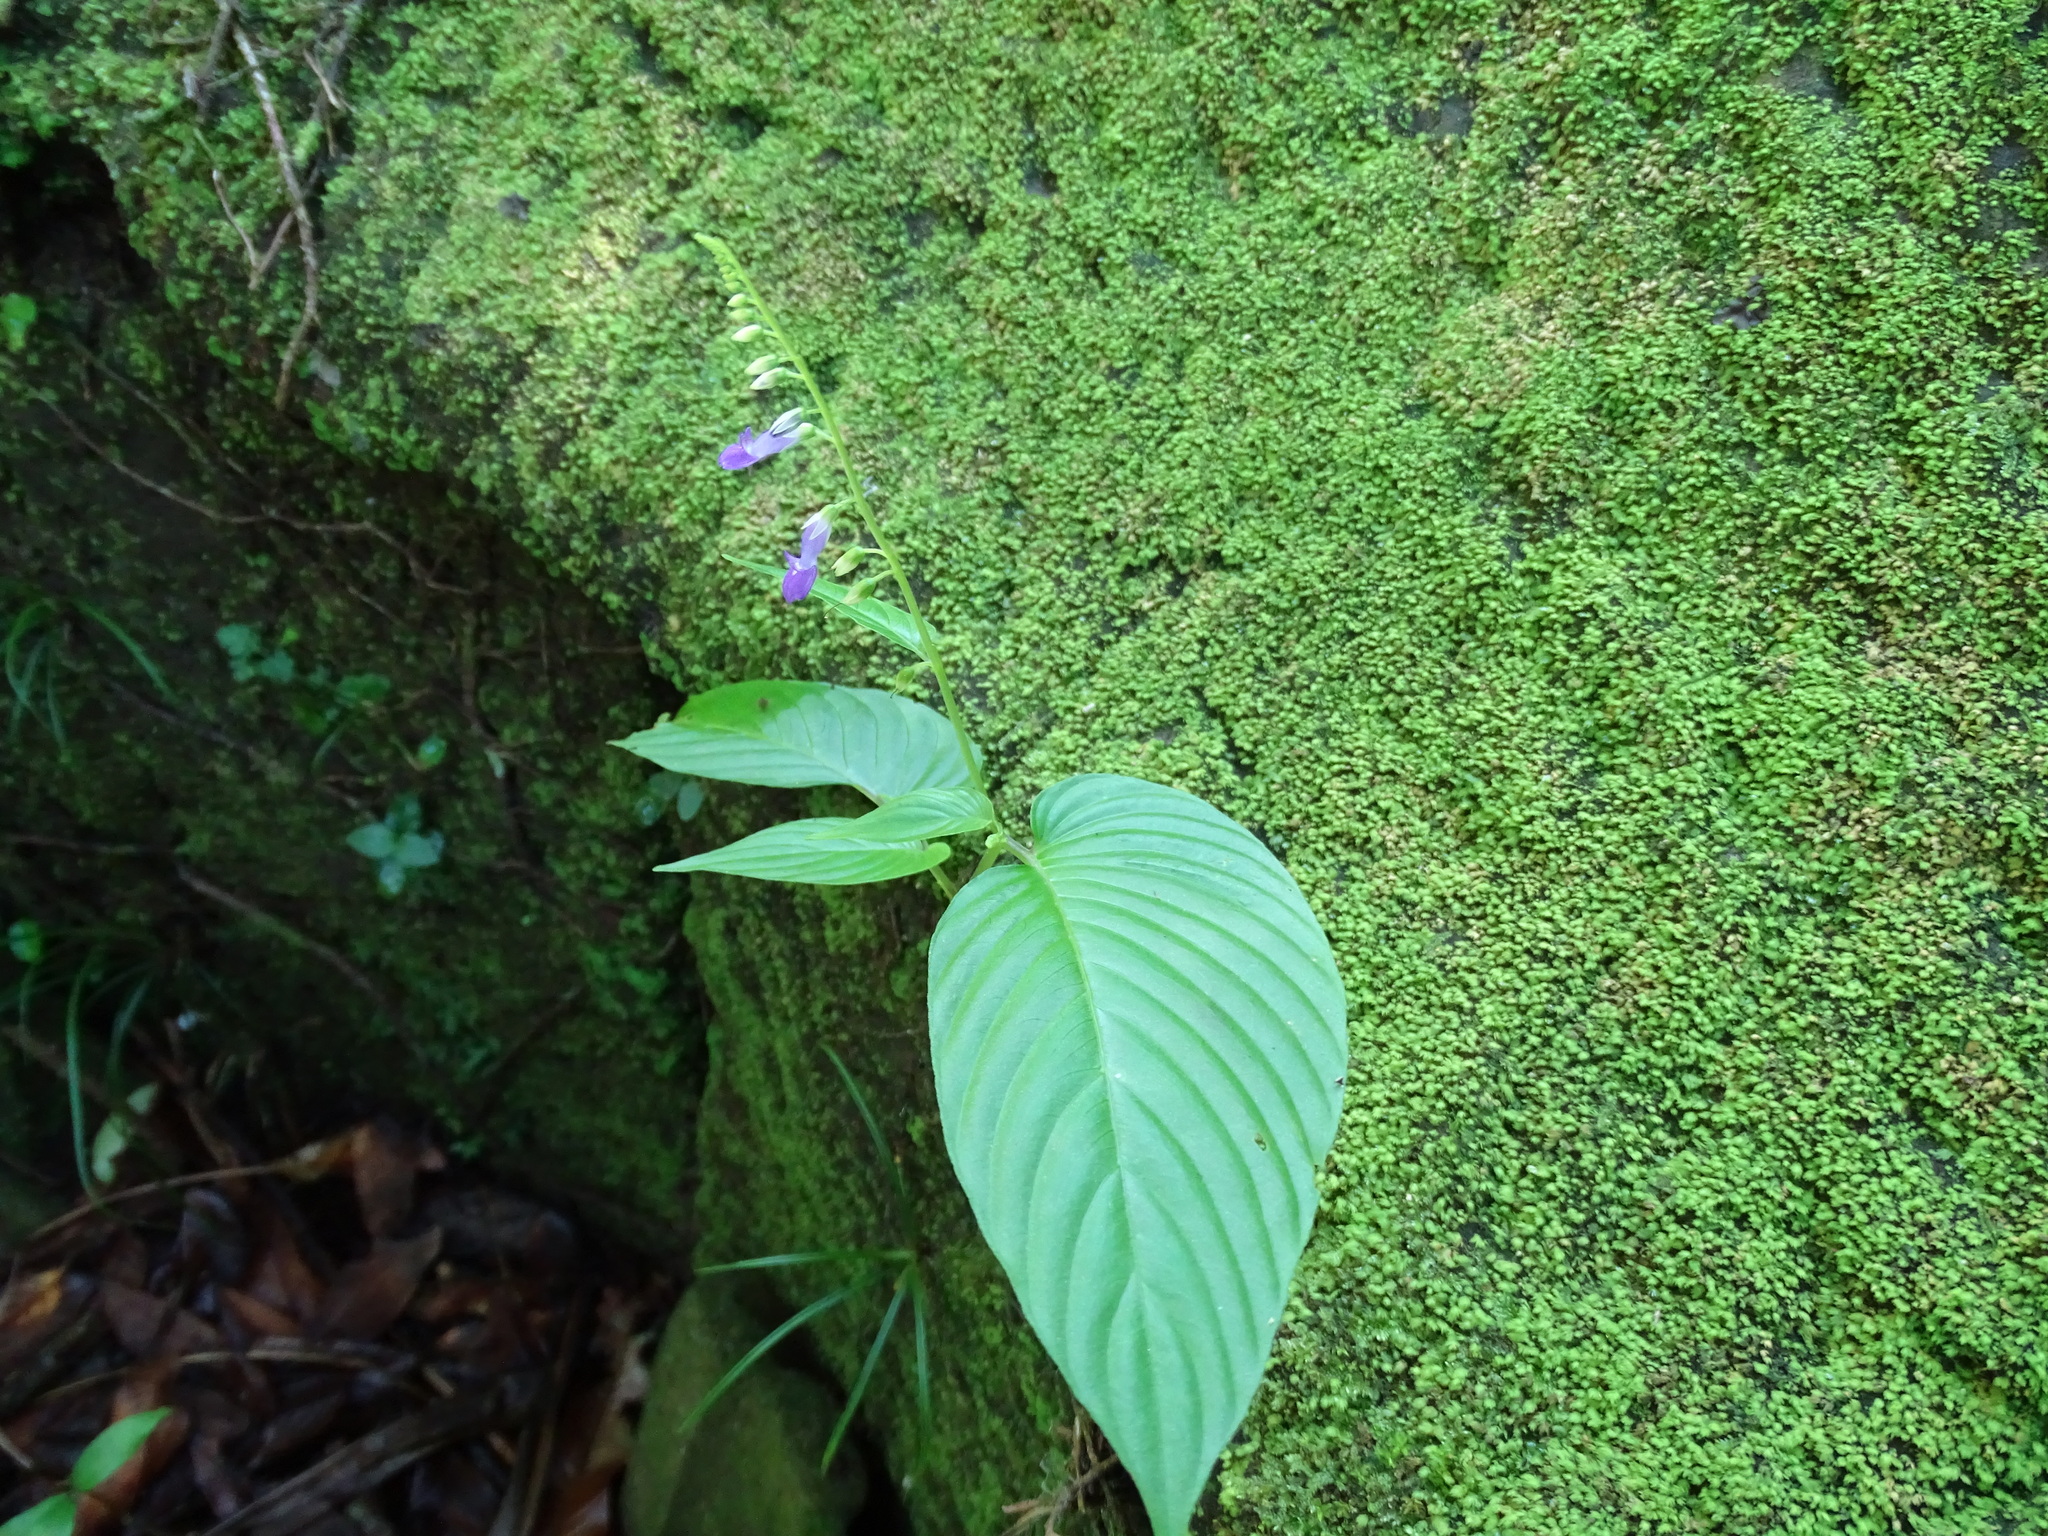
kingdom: Plantae
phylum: Tracheophyta
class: Magnoliopsida
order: Lamiales
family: Gesneriaceae
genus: Rhynchoglossum
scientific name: Rhynchoglossum obliquum
